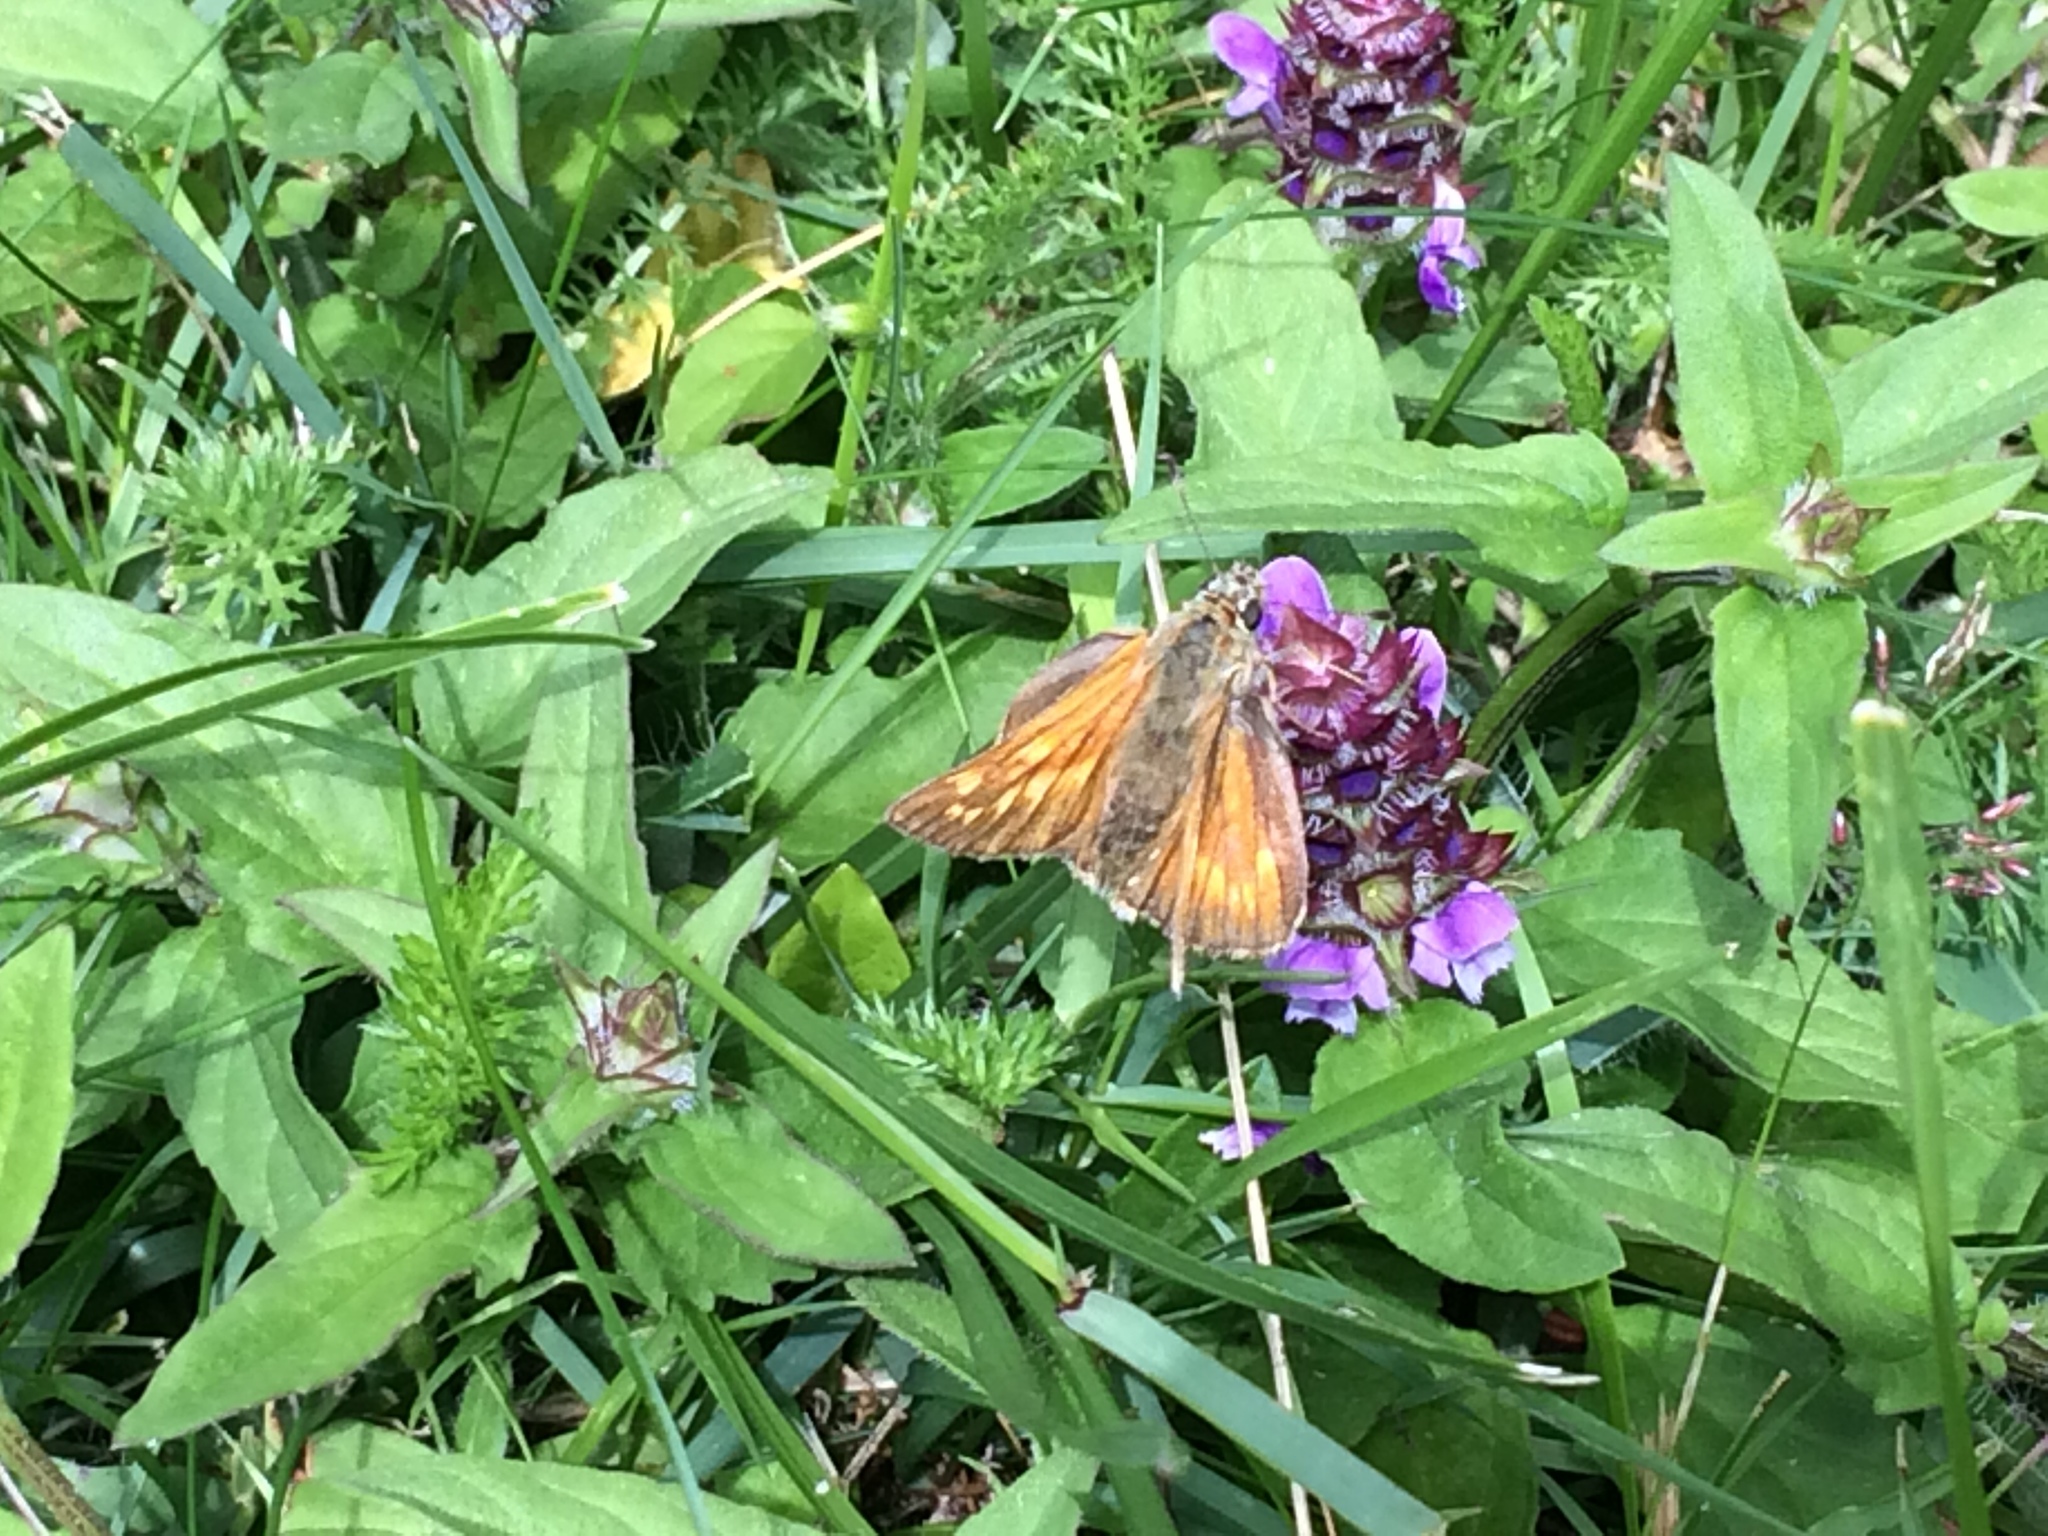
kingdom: Animalia
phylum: Arthropoda
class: Insecta
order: Lepidoptera
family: Hesperiidae
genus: Ochlodes
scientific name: Ochlodes venata
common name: Large skipper
